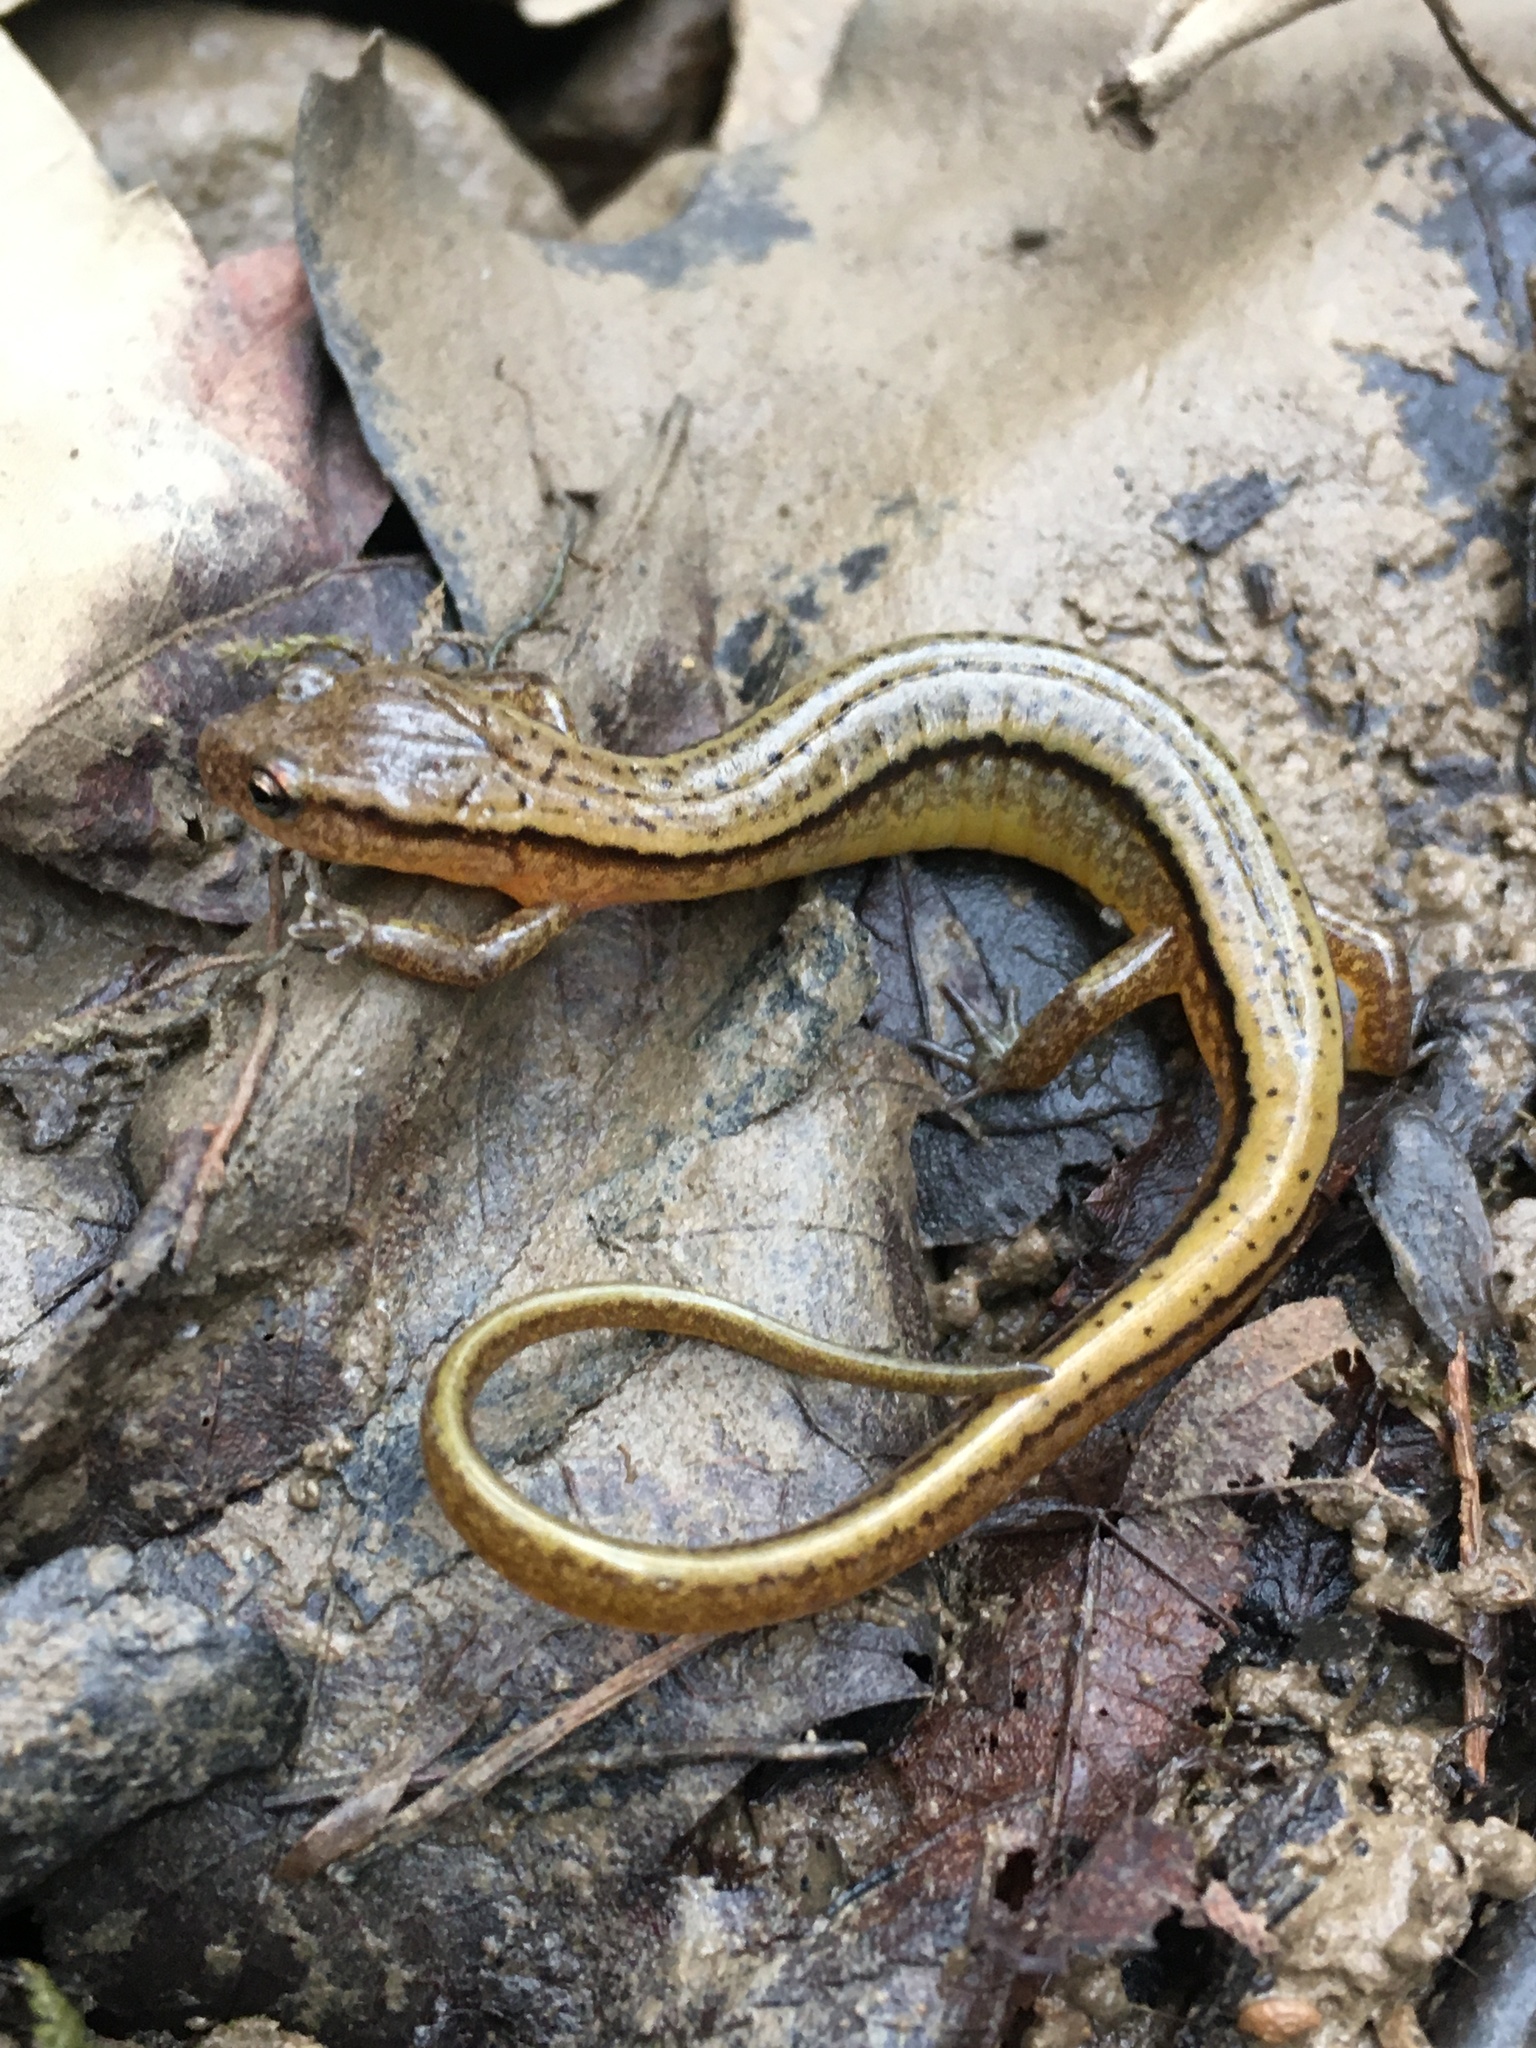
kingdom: Animalia
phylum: Chordata
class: Amphibia
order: Caudata
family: Plethodontidae
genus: Eurycea
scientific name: Eurycea cirrigera
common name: Southern two-lined salamander
